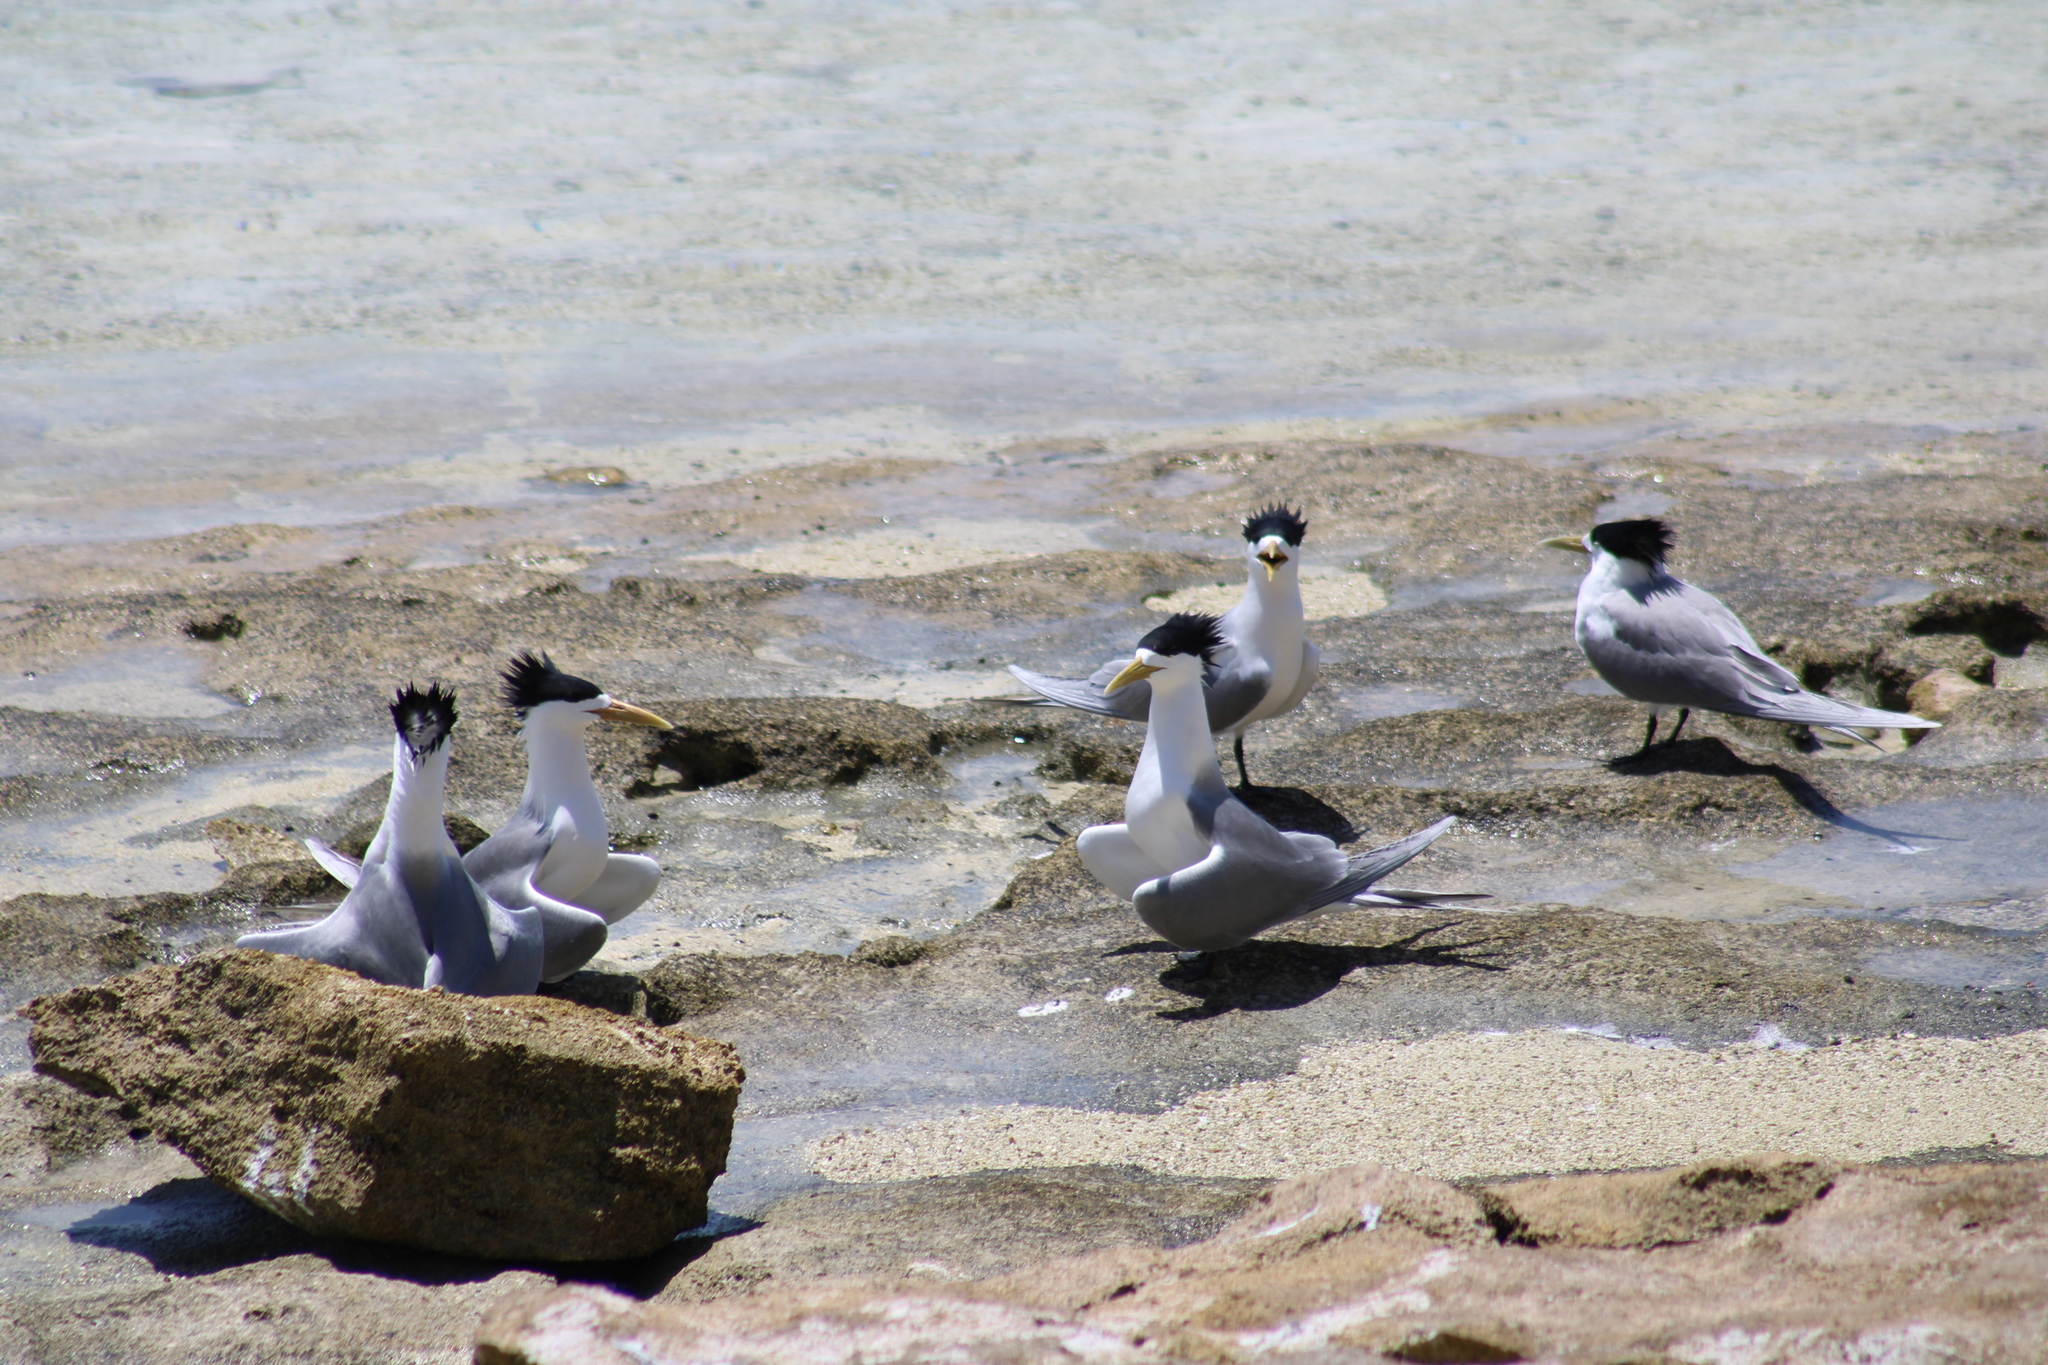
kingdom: Animalia
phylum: Chordata
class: Aves
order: Charadriiformes
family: Laridae
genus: Thalasseus
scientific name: Thalasseus bergii
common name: Greater crested tern
